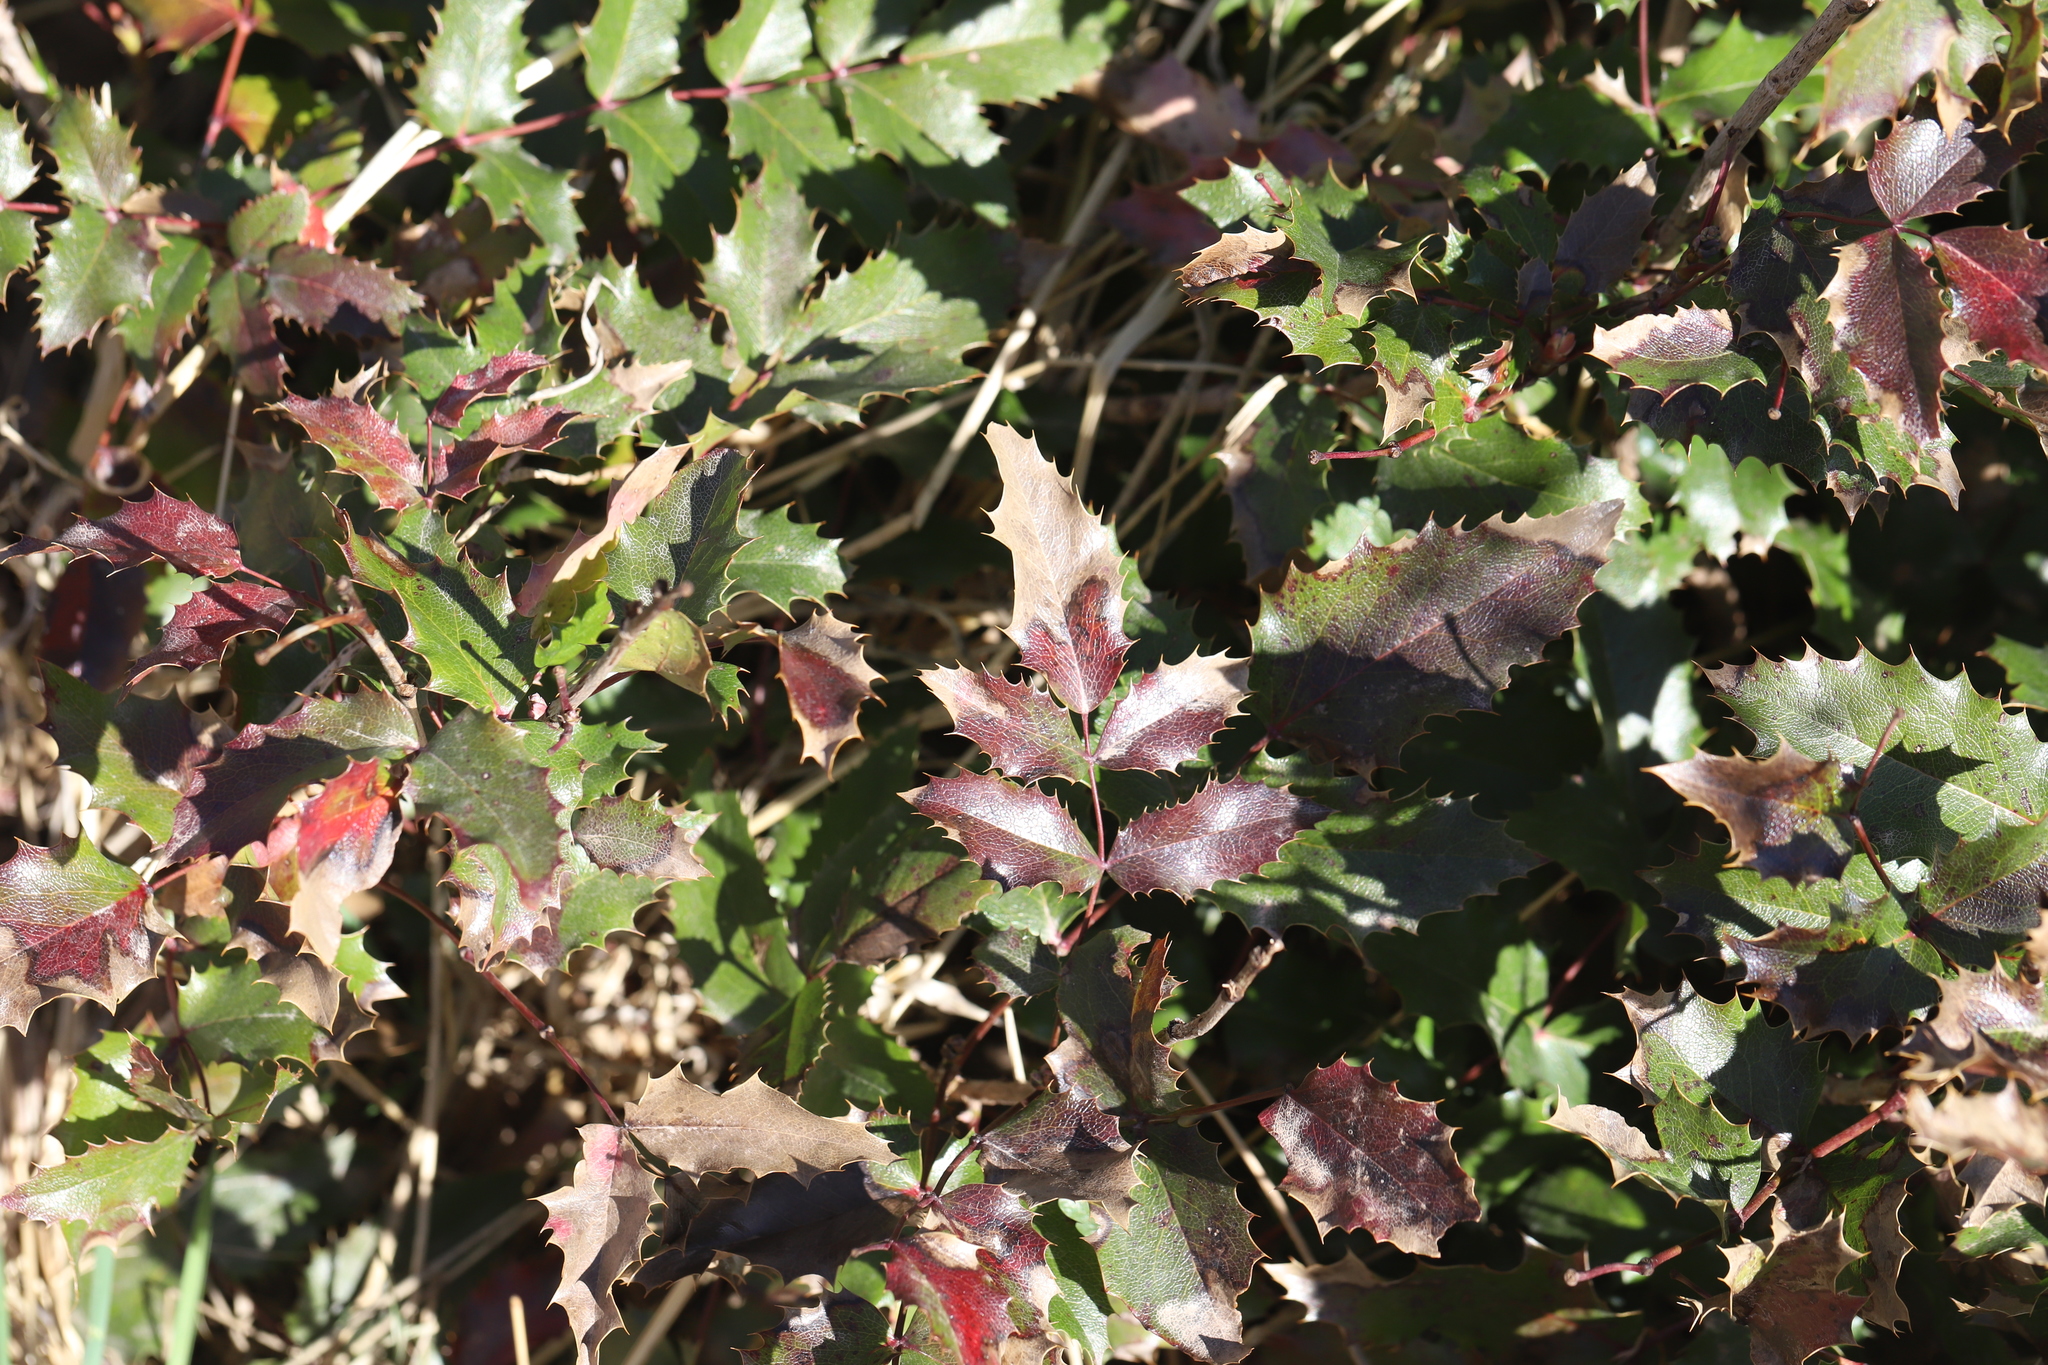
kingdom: Plantae
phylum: Tracheophyta
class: Magnoliopsida
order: Ranunculales
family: Berberidaceae
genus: Mahonia
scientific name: Mahonia repens
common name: Creeping oregon-grape
